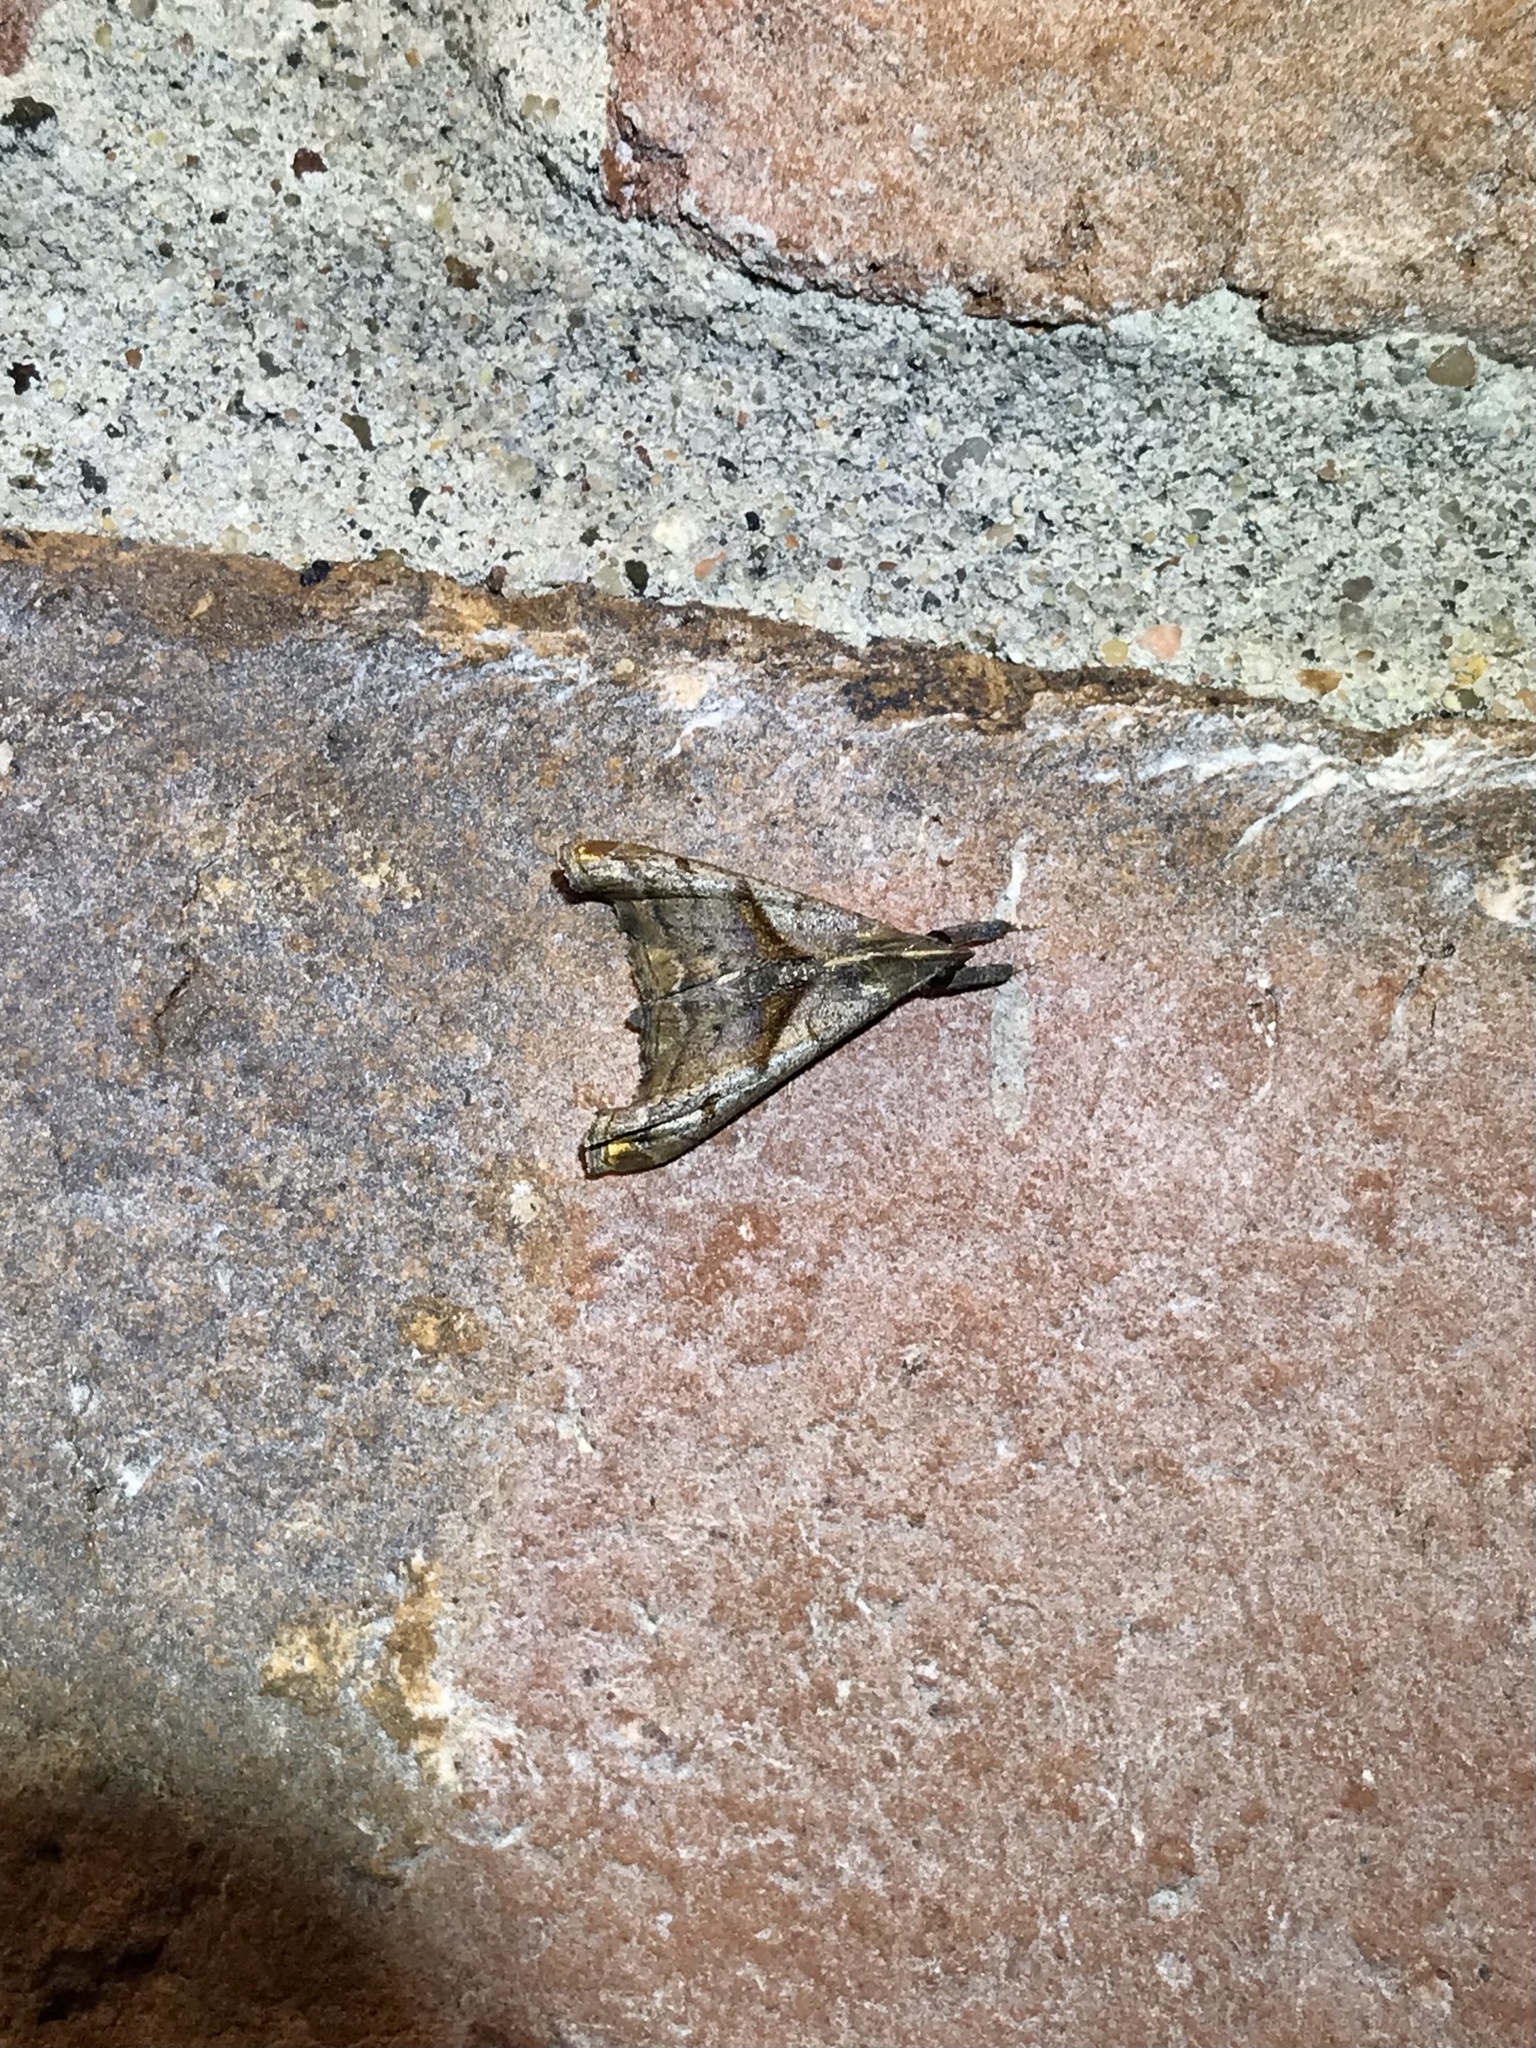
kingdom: Animalia
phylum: Arthropoda
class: Insecta
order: Lepidoptera
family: Erebidae
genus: Palthis
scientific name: Palthis angulalis
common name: Dark-spotted palthis moth
